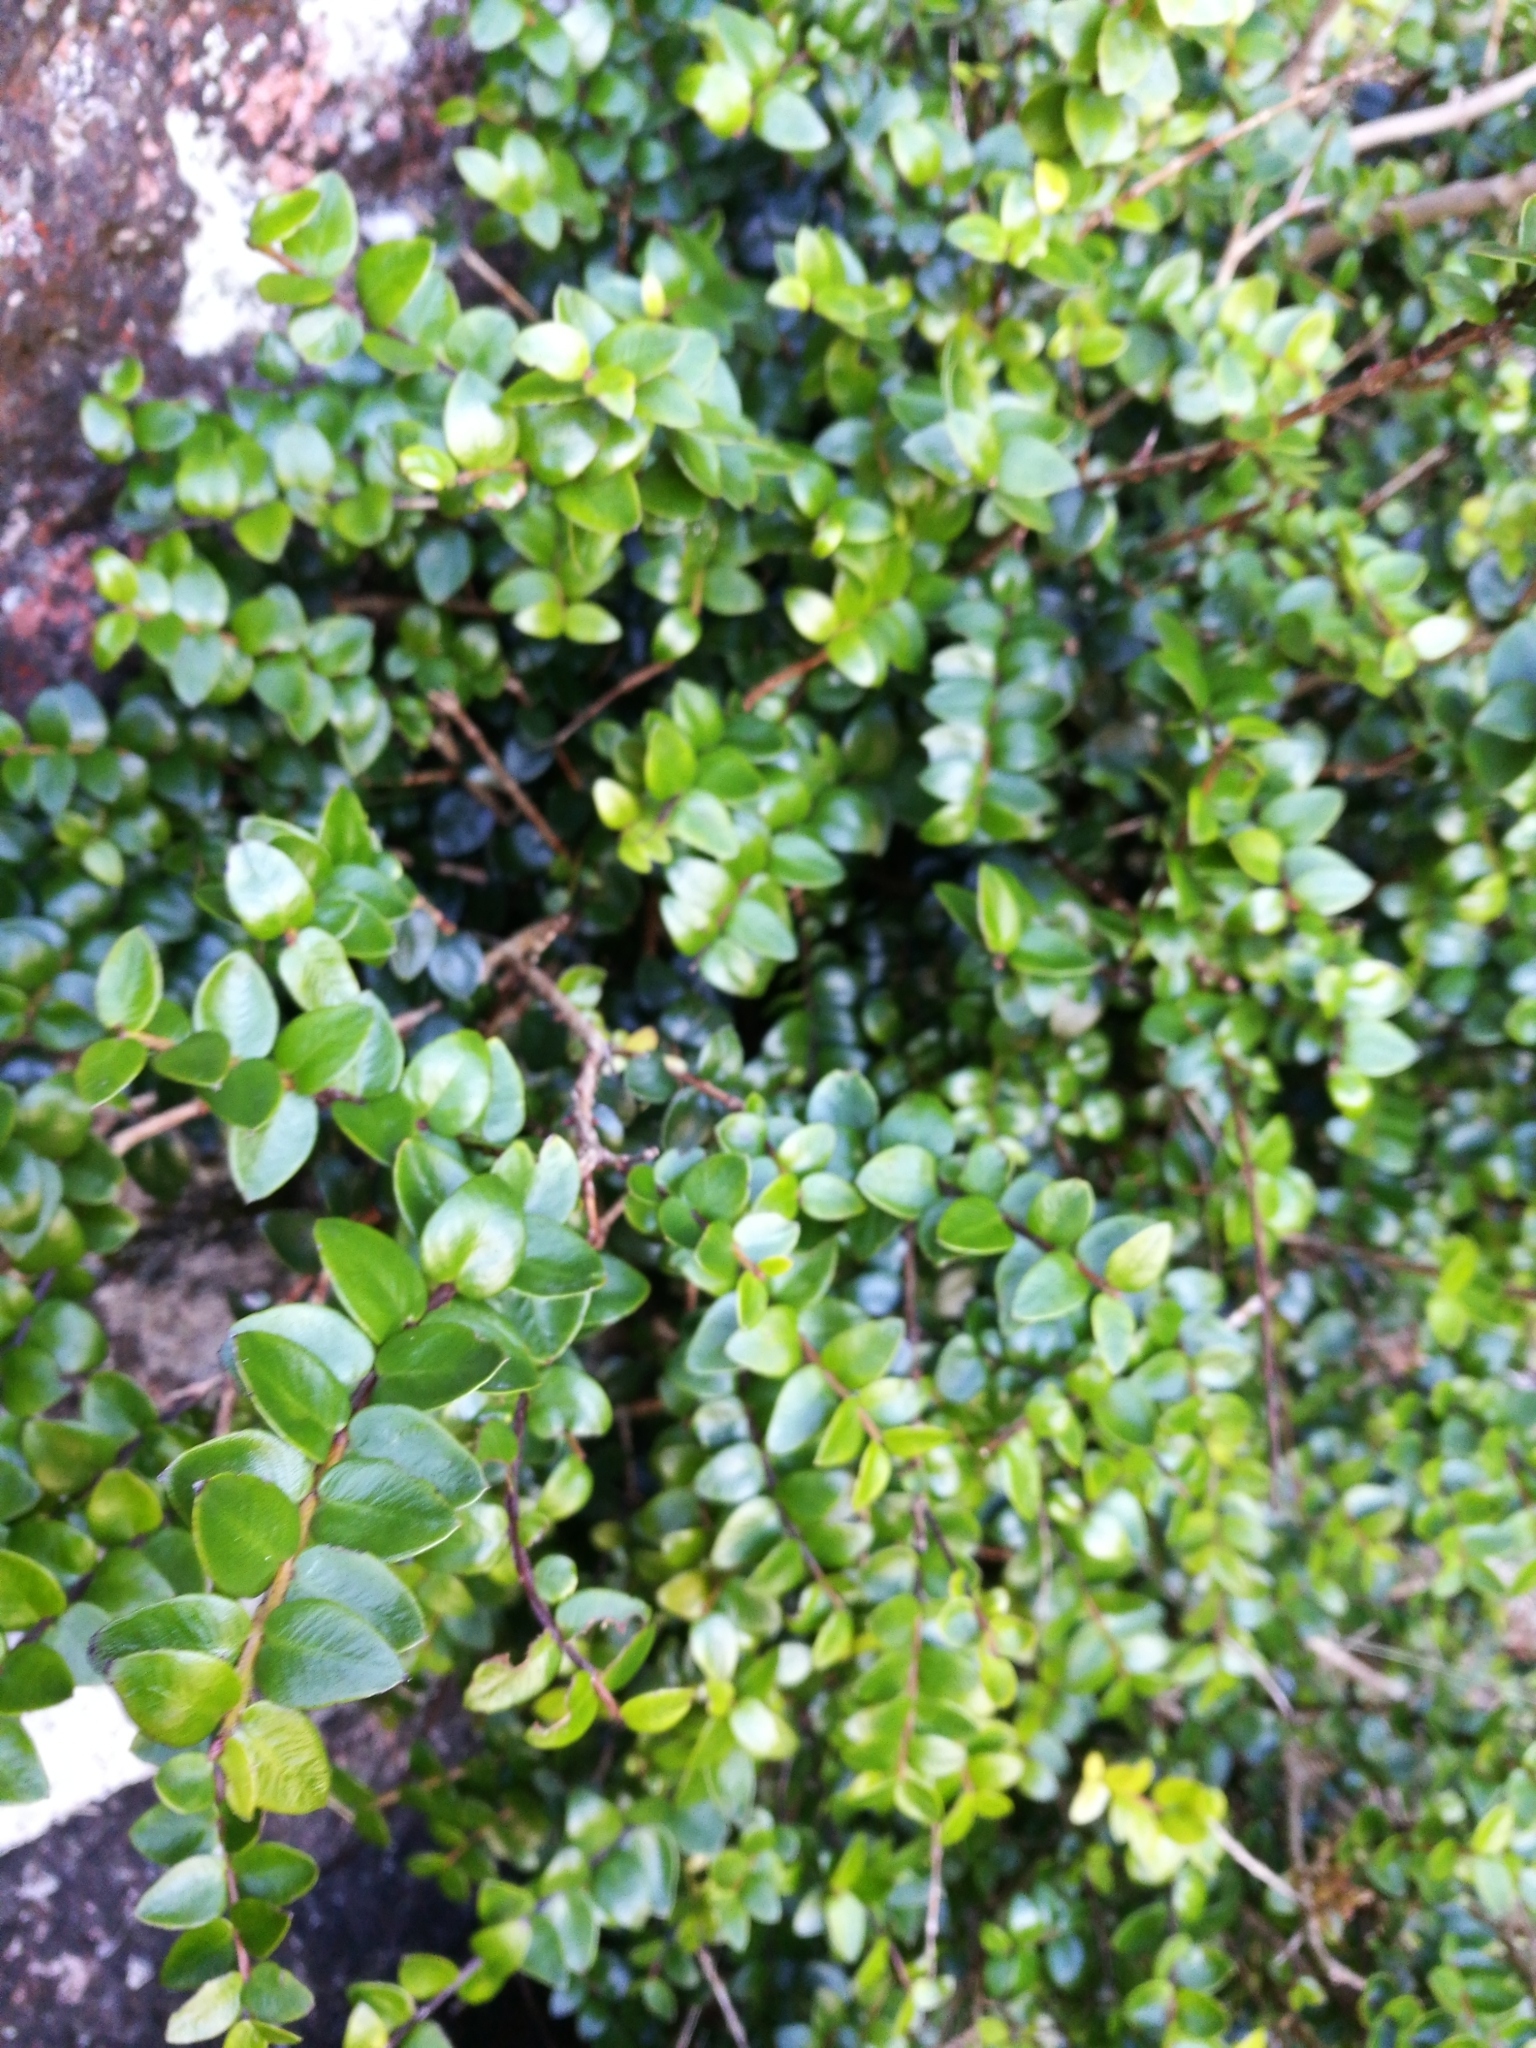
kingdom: Plantae
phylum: Tracheophyta
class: Magnoliopsida
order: Myrtales
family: Myrtaceae
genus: Metrosideros
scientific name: Metrosideros diffusa
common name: Small ratavine
